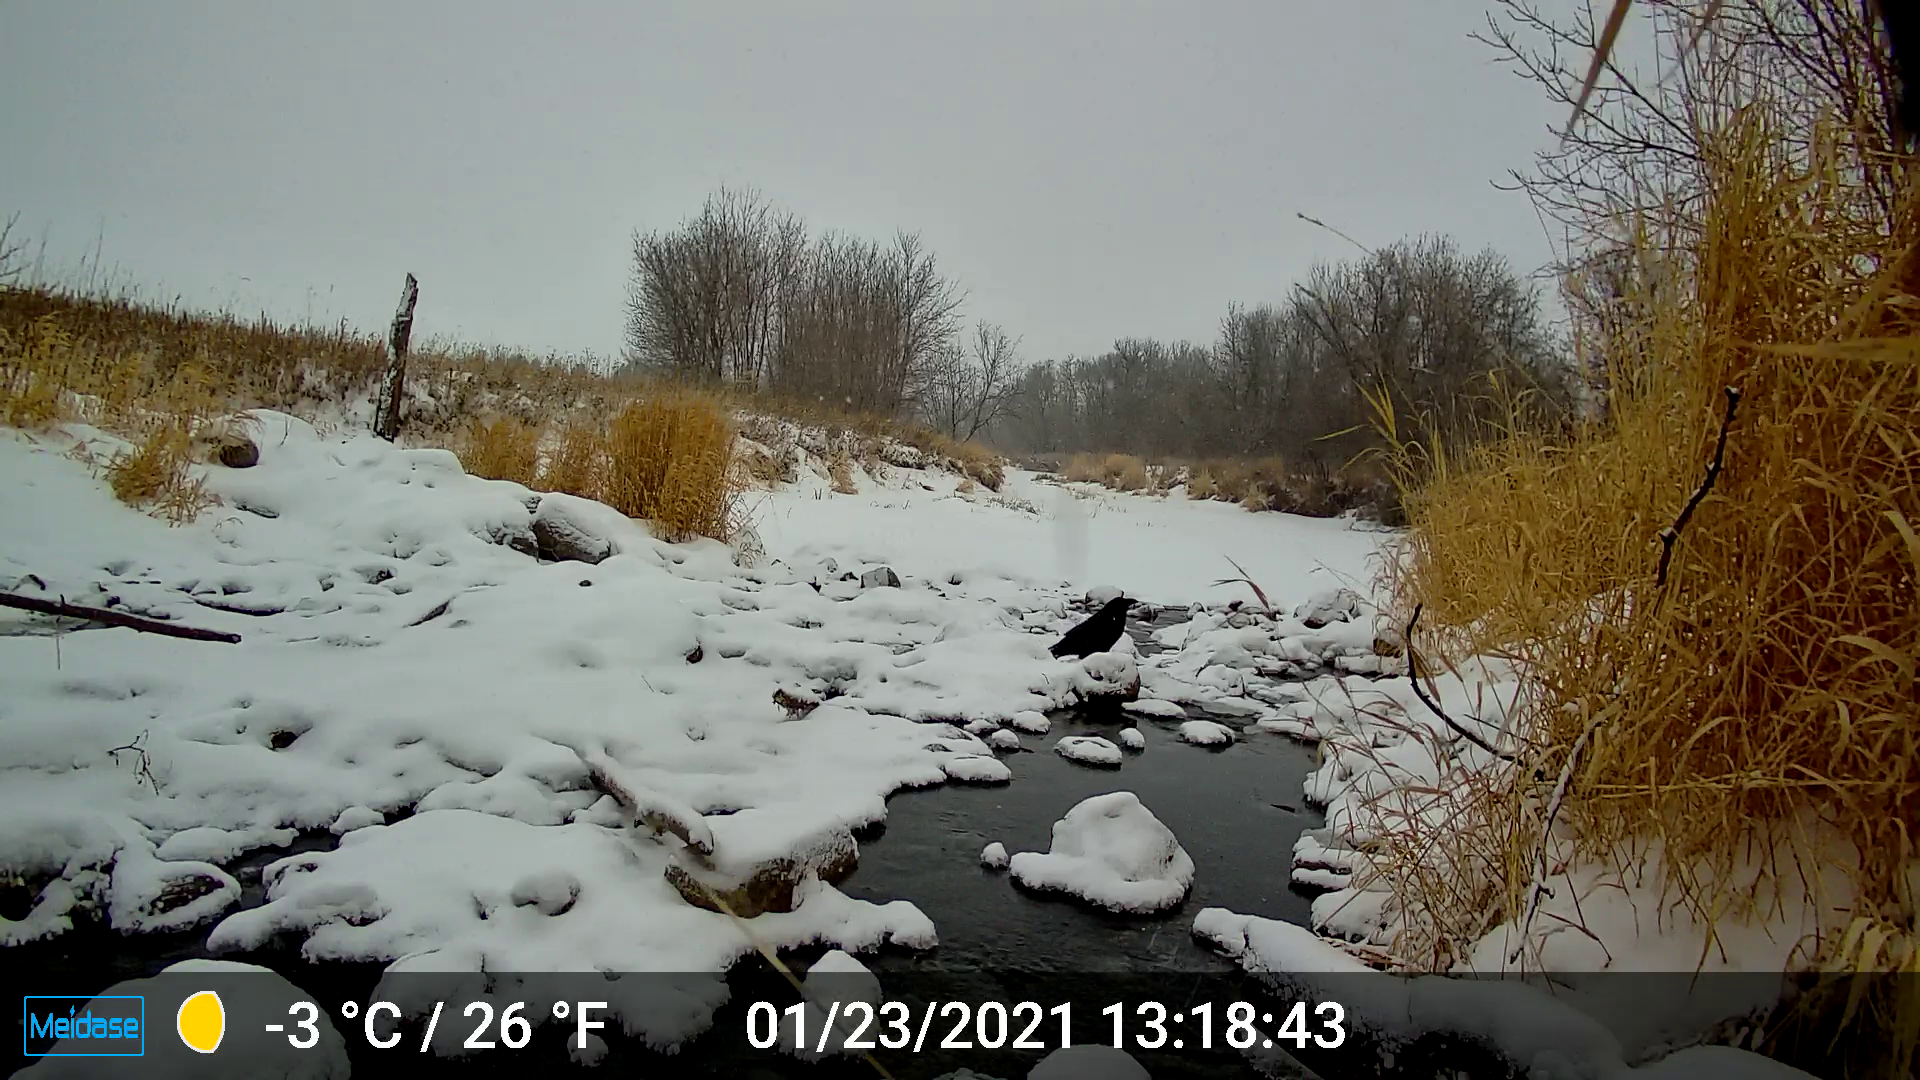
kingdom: Animalia
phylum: Chordata
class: Aves
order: Passeriformes
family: Corvidae
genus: Corvus
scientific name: Corvus corax
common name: Common raven
